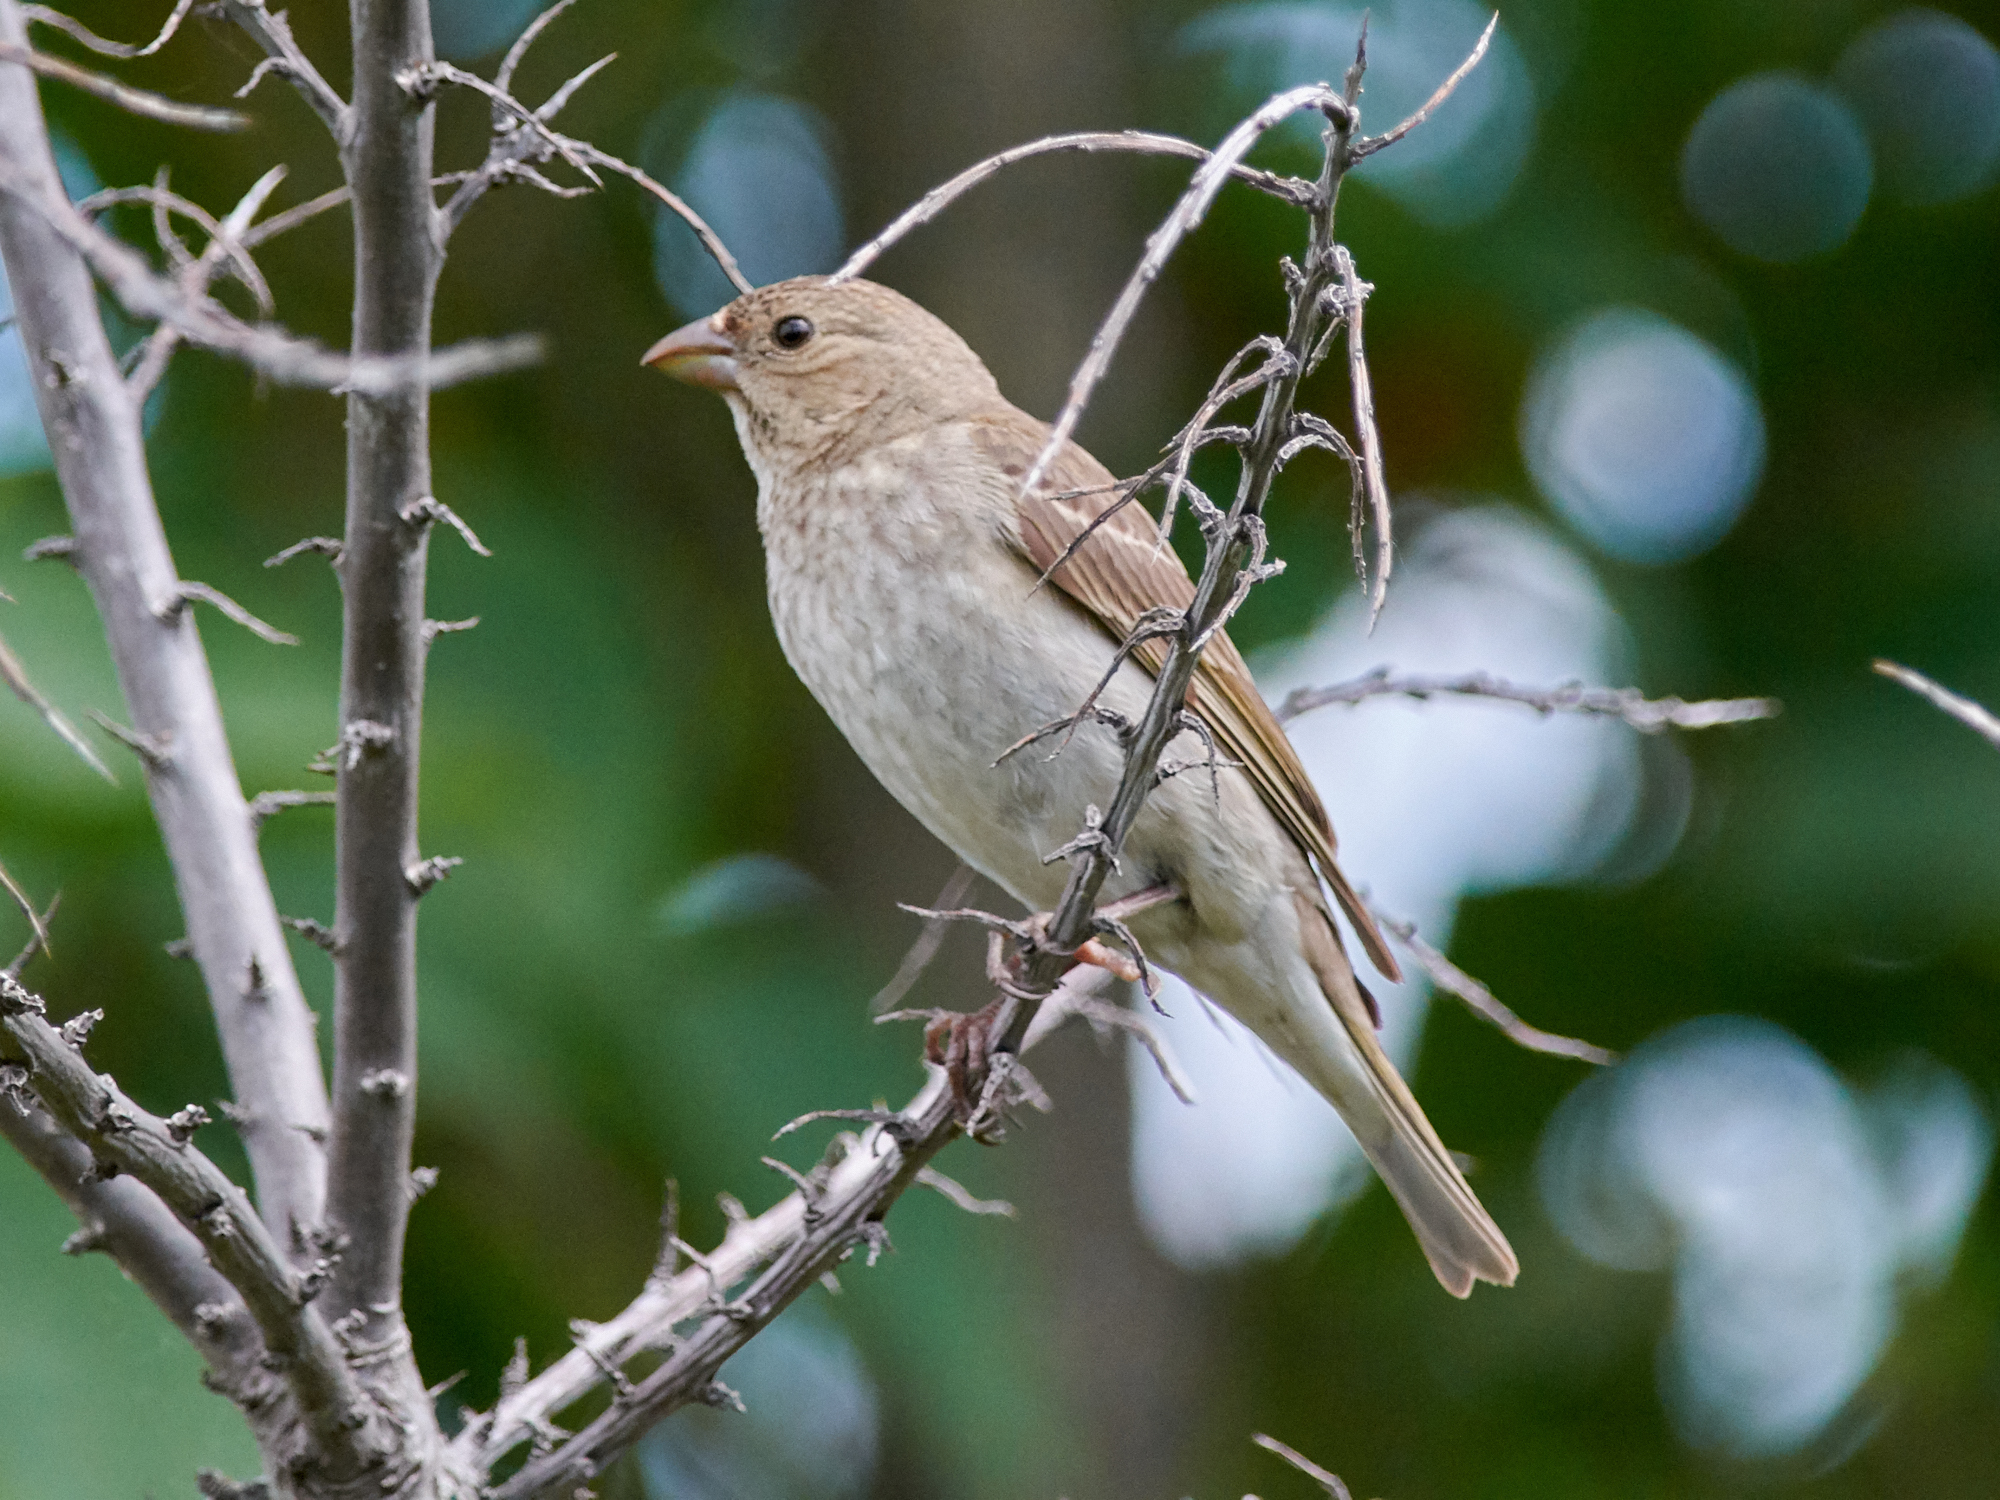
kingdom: Animalia
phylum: Chordata
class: Aves
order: Passeriformes
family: Fringillidae
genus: Carpodacus
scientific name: Carpodacus erythrinus
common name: Common rosefinch
